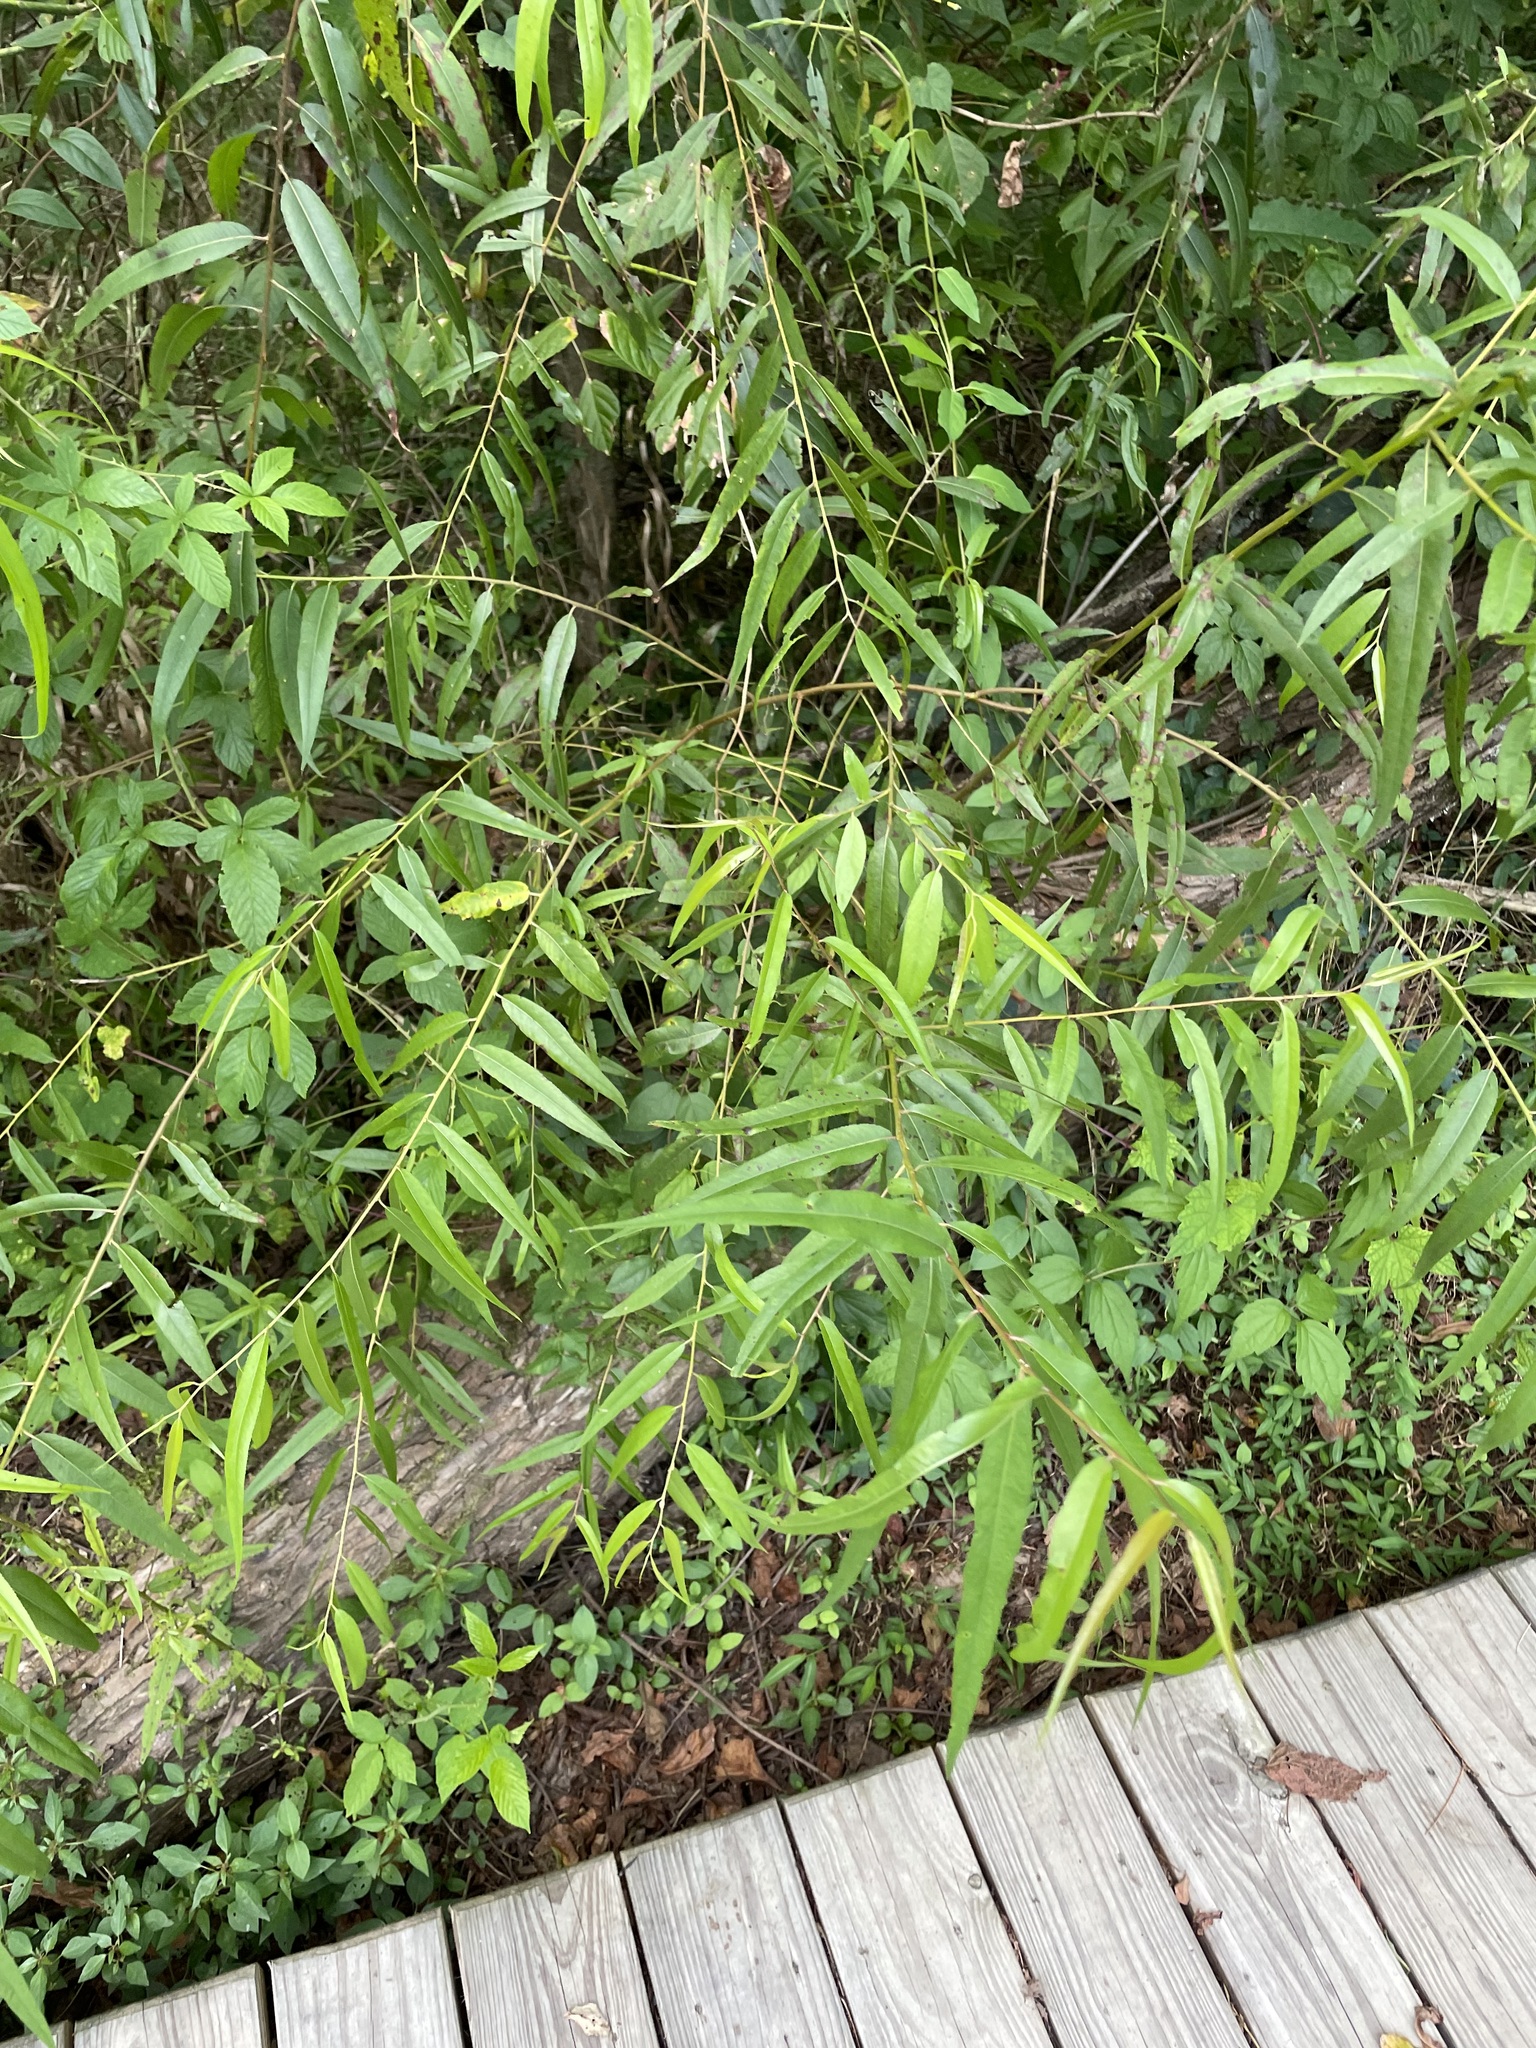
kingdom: Plantae
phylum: Tracheophyta
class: Magnoliopsida
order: Malpighiales
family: Salicaceae
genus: Salix
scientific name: Salix nigra
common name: Black willow
